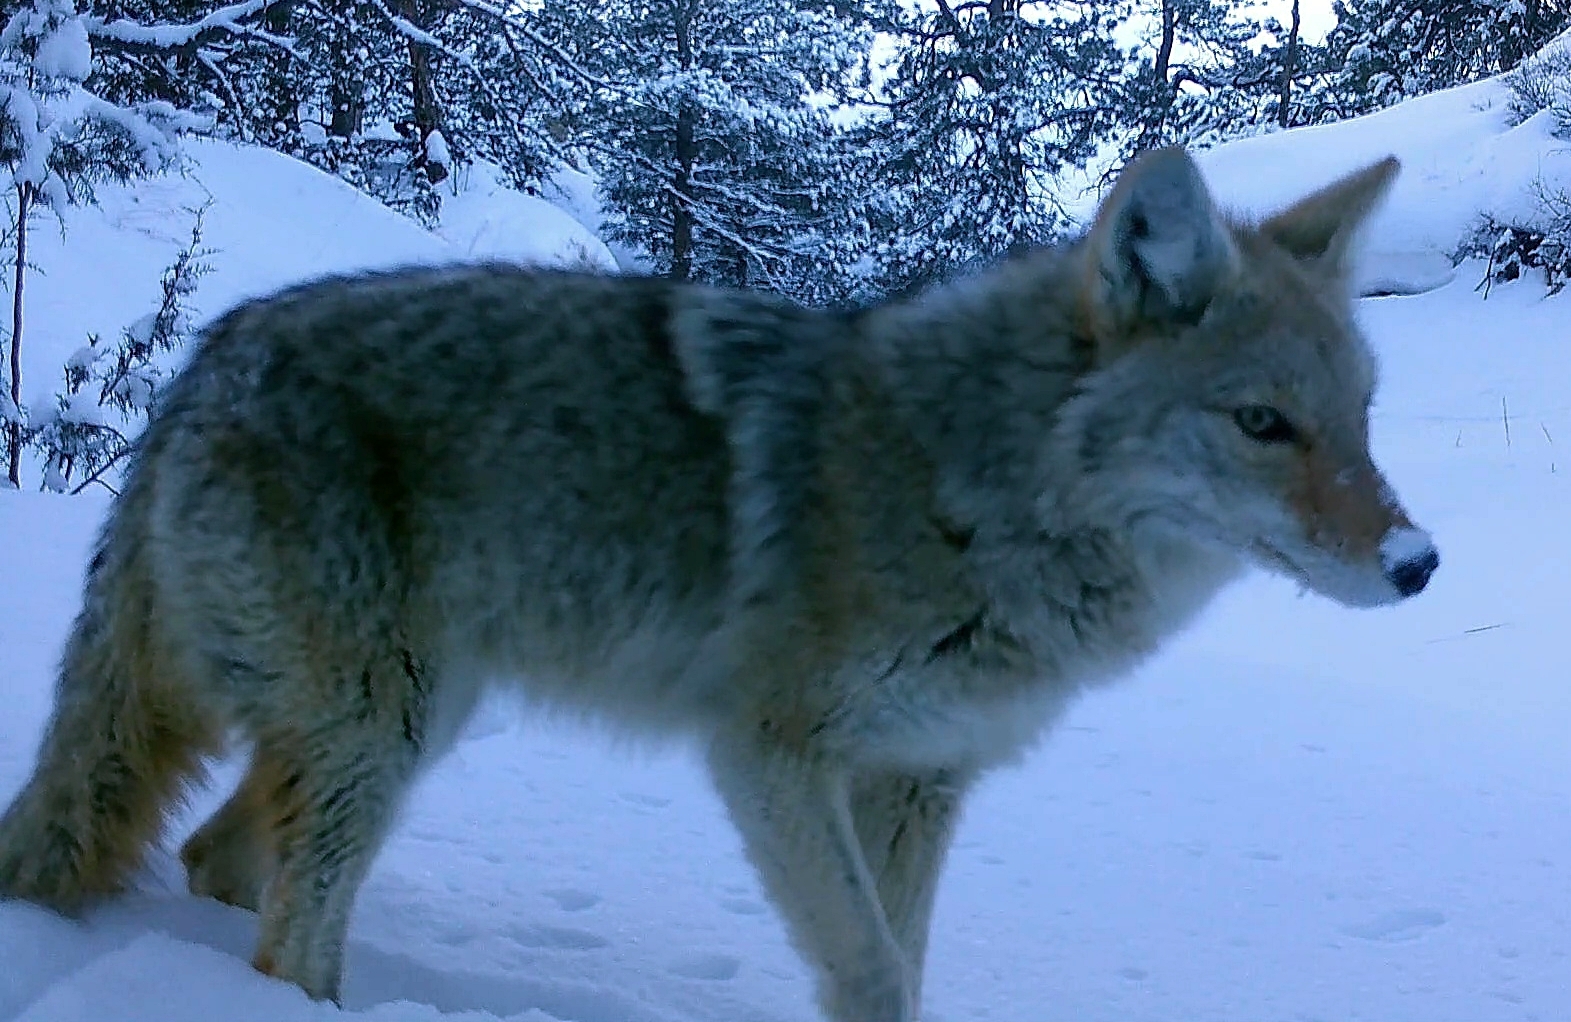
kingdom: Animalia
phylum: Chordata
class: Mammalia
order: Carnivora
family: Canidae
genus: Canis
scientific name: Canis latrans
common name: Coyote
